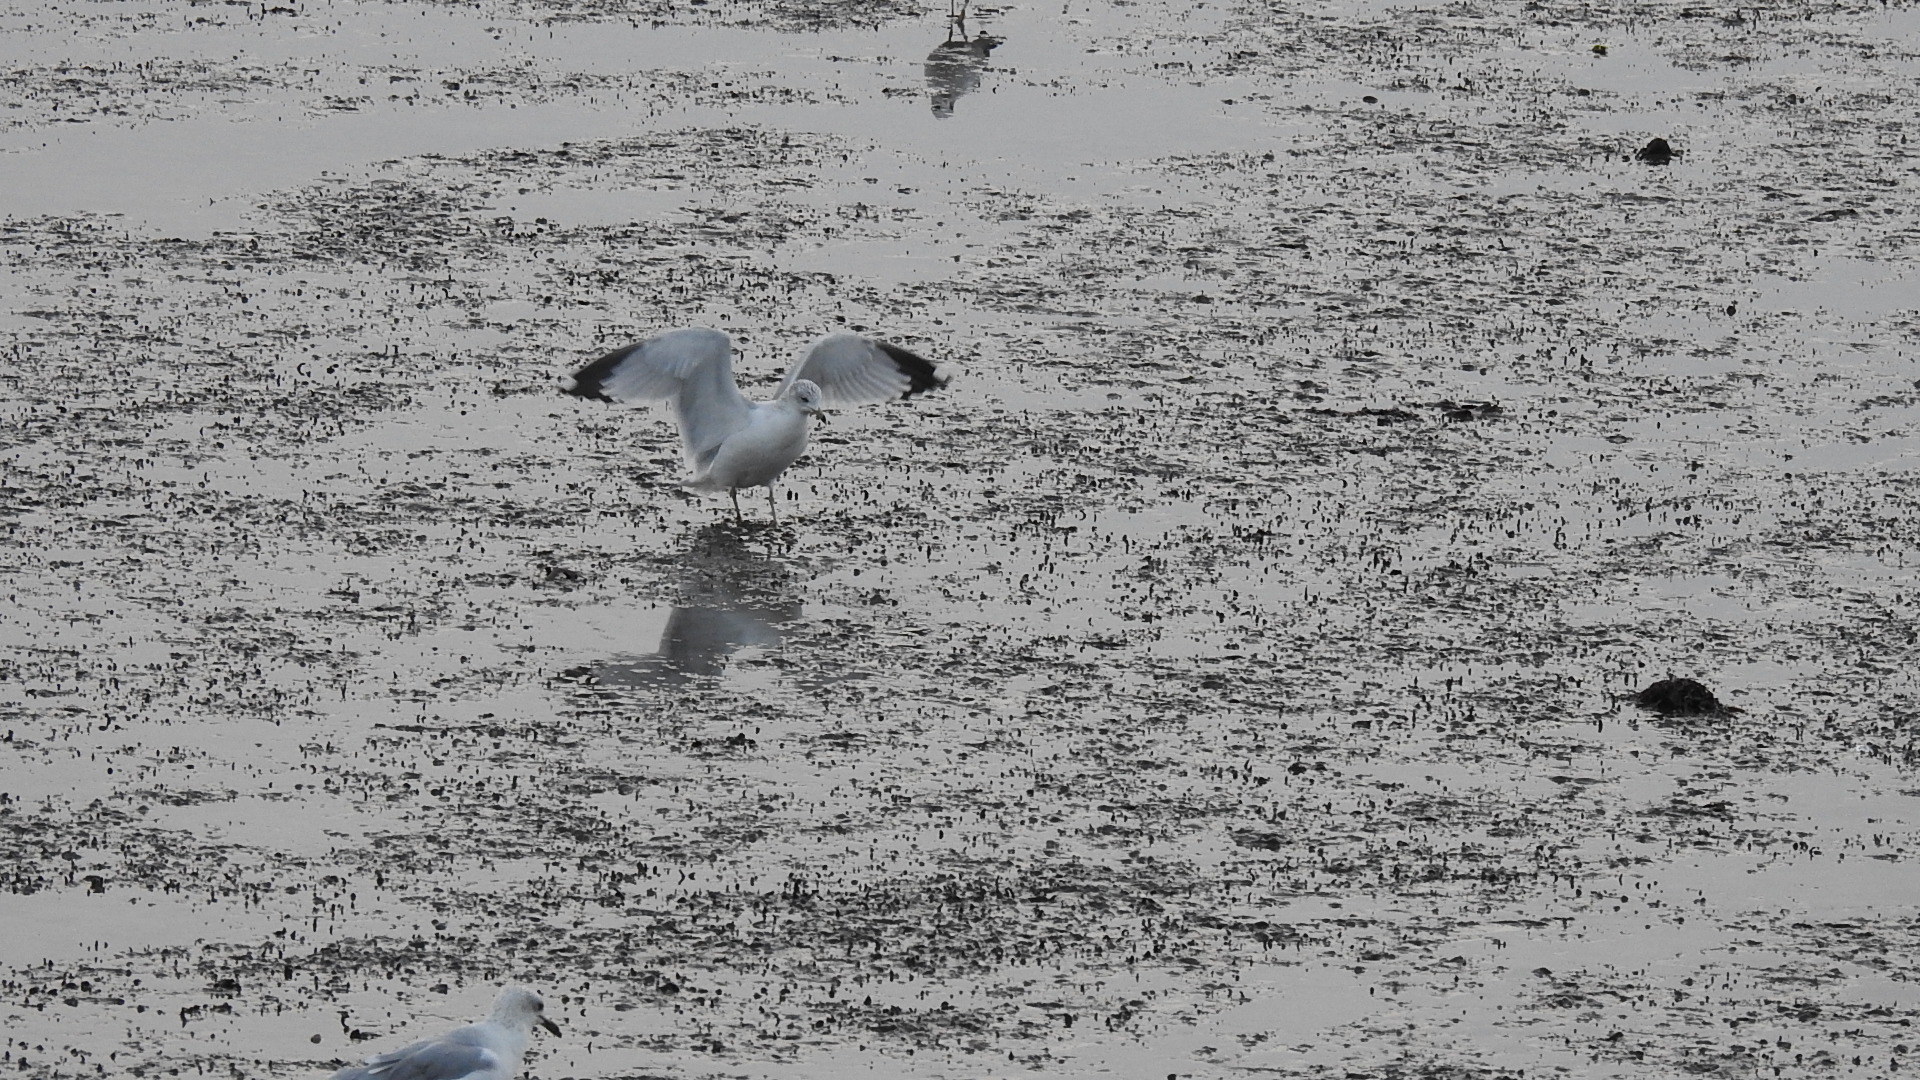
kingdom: Animalia
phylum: Chordata
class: Aves
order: Charadriiformes
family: Laridae
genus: Larus
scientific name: Larus delawarensis
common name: Ring-billed gull
